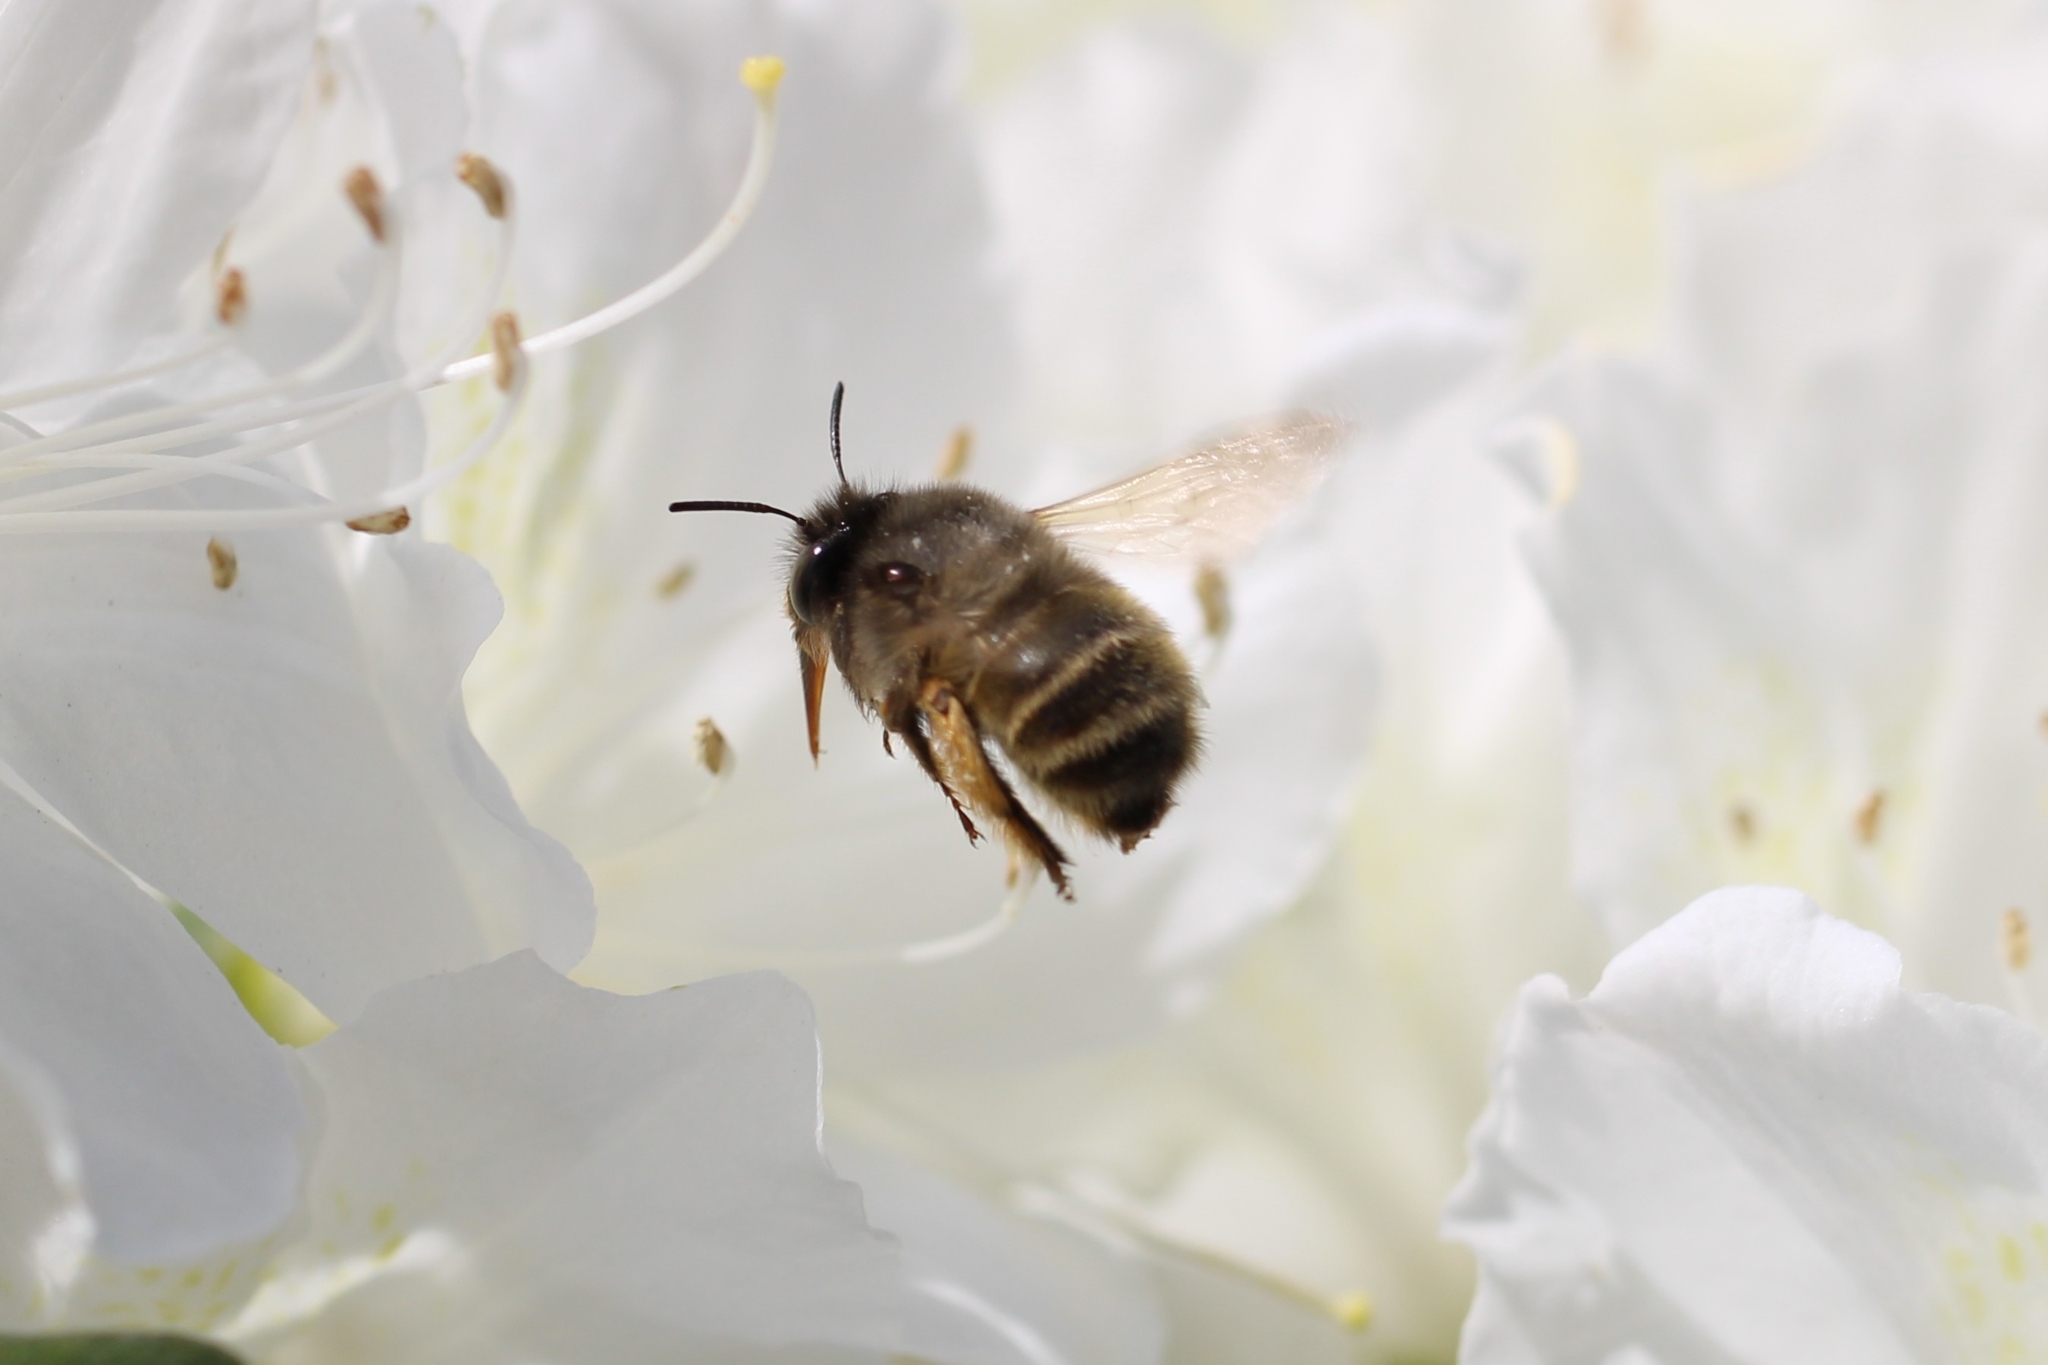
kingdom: Animalia
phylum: Arthropoda
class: Insecta
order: Hymenoptera
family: Apidae
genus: Anthophora
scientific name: Anthophora villosula
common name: Asian shaggy digger
